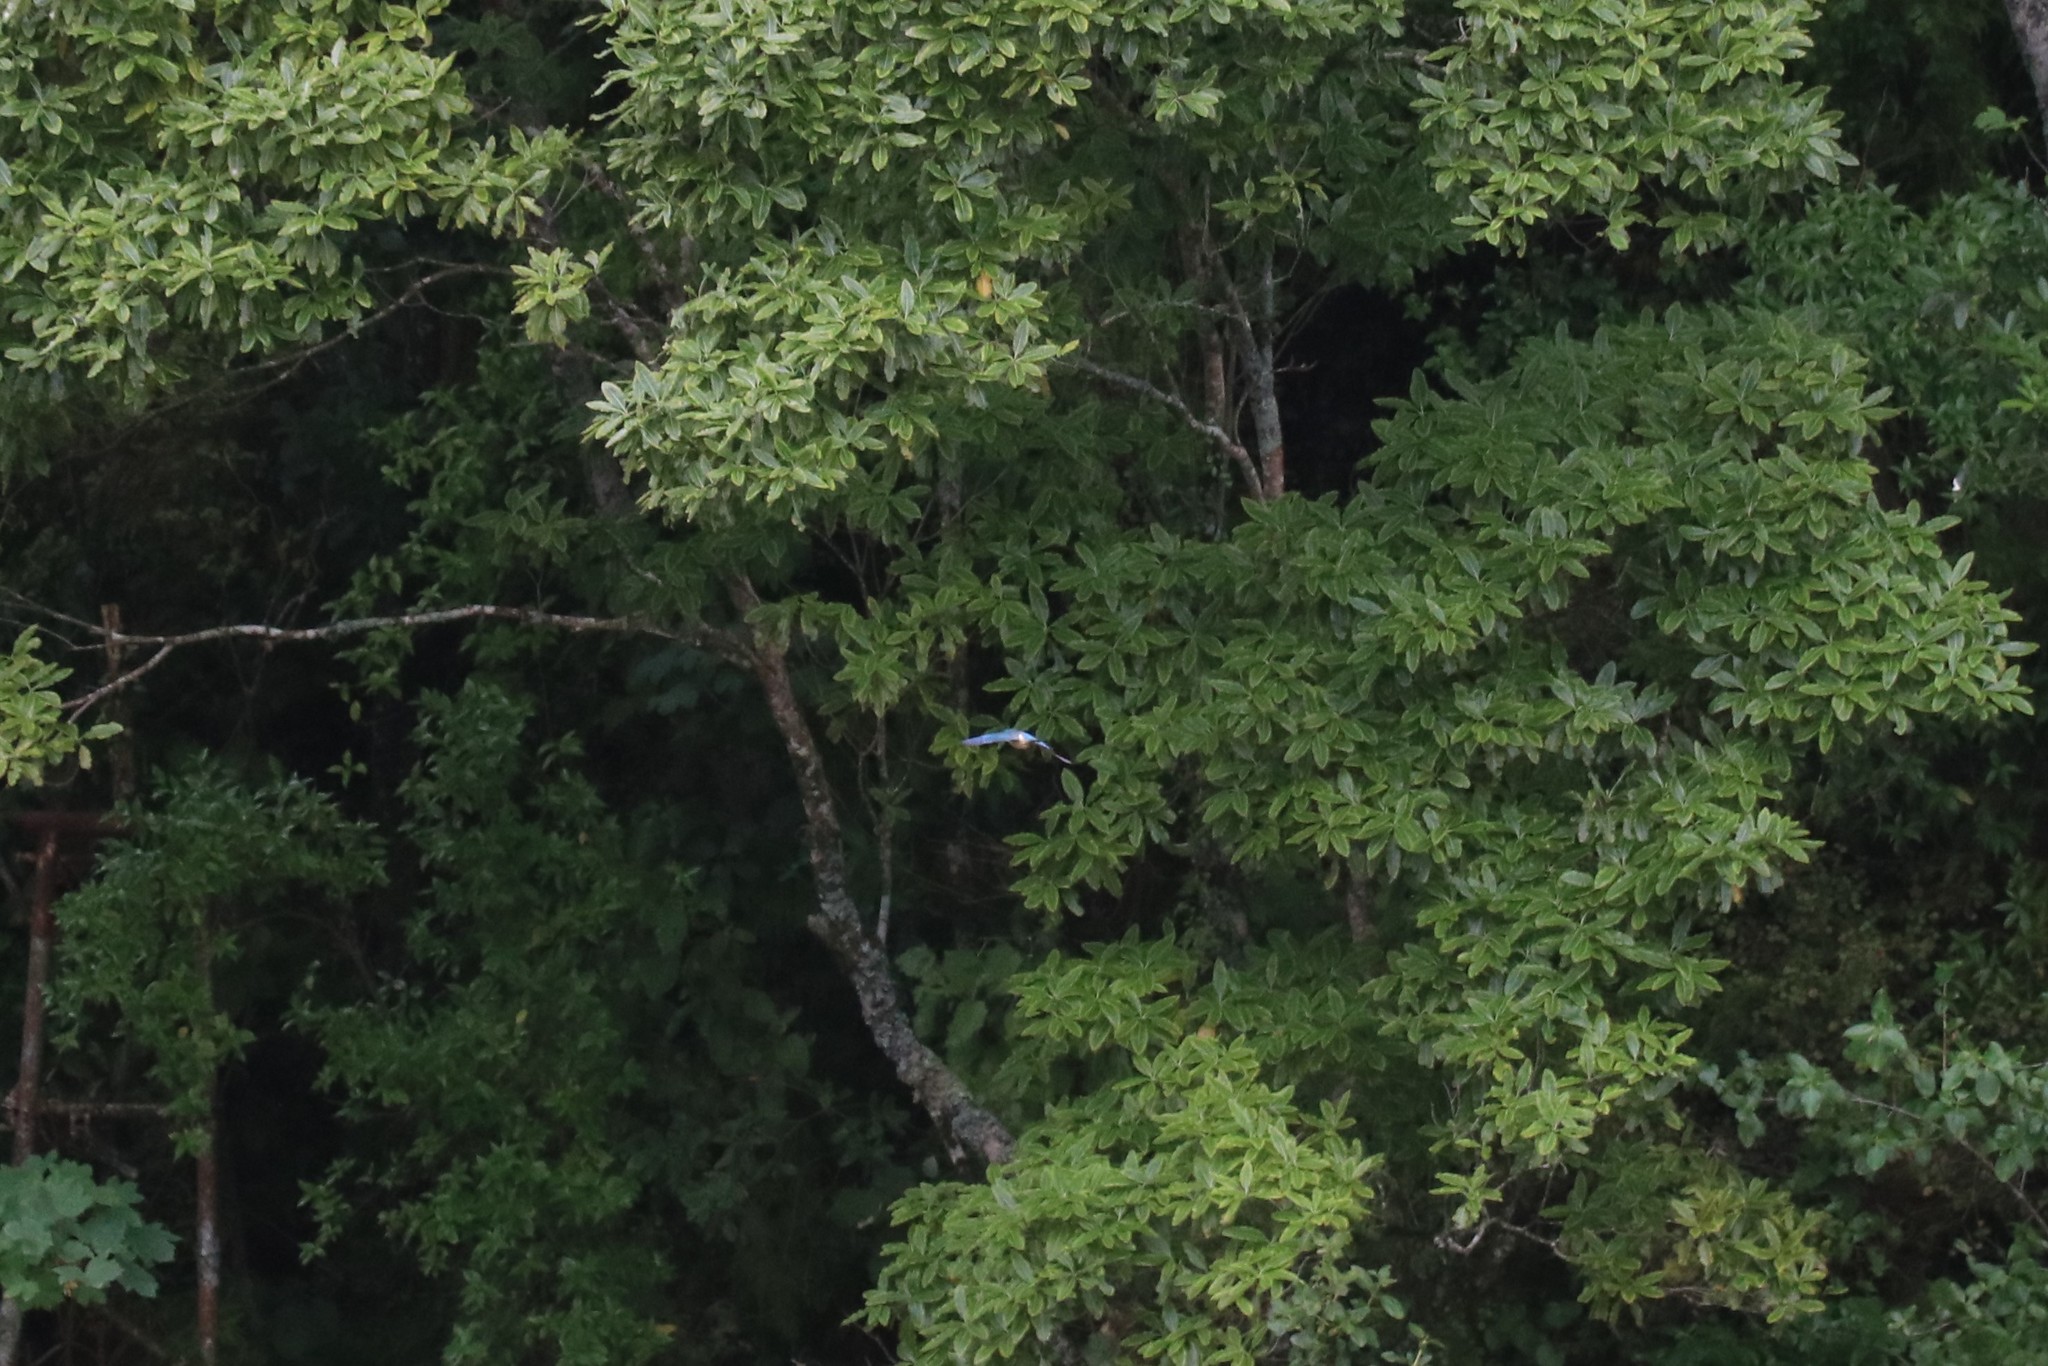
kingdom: Animalia
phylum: Chordata
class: Aves
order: Coraciiformes
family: Alcedinidae
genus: Todiramphus
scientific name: Todiramphus sanctus
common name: Sacred kingfisher
